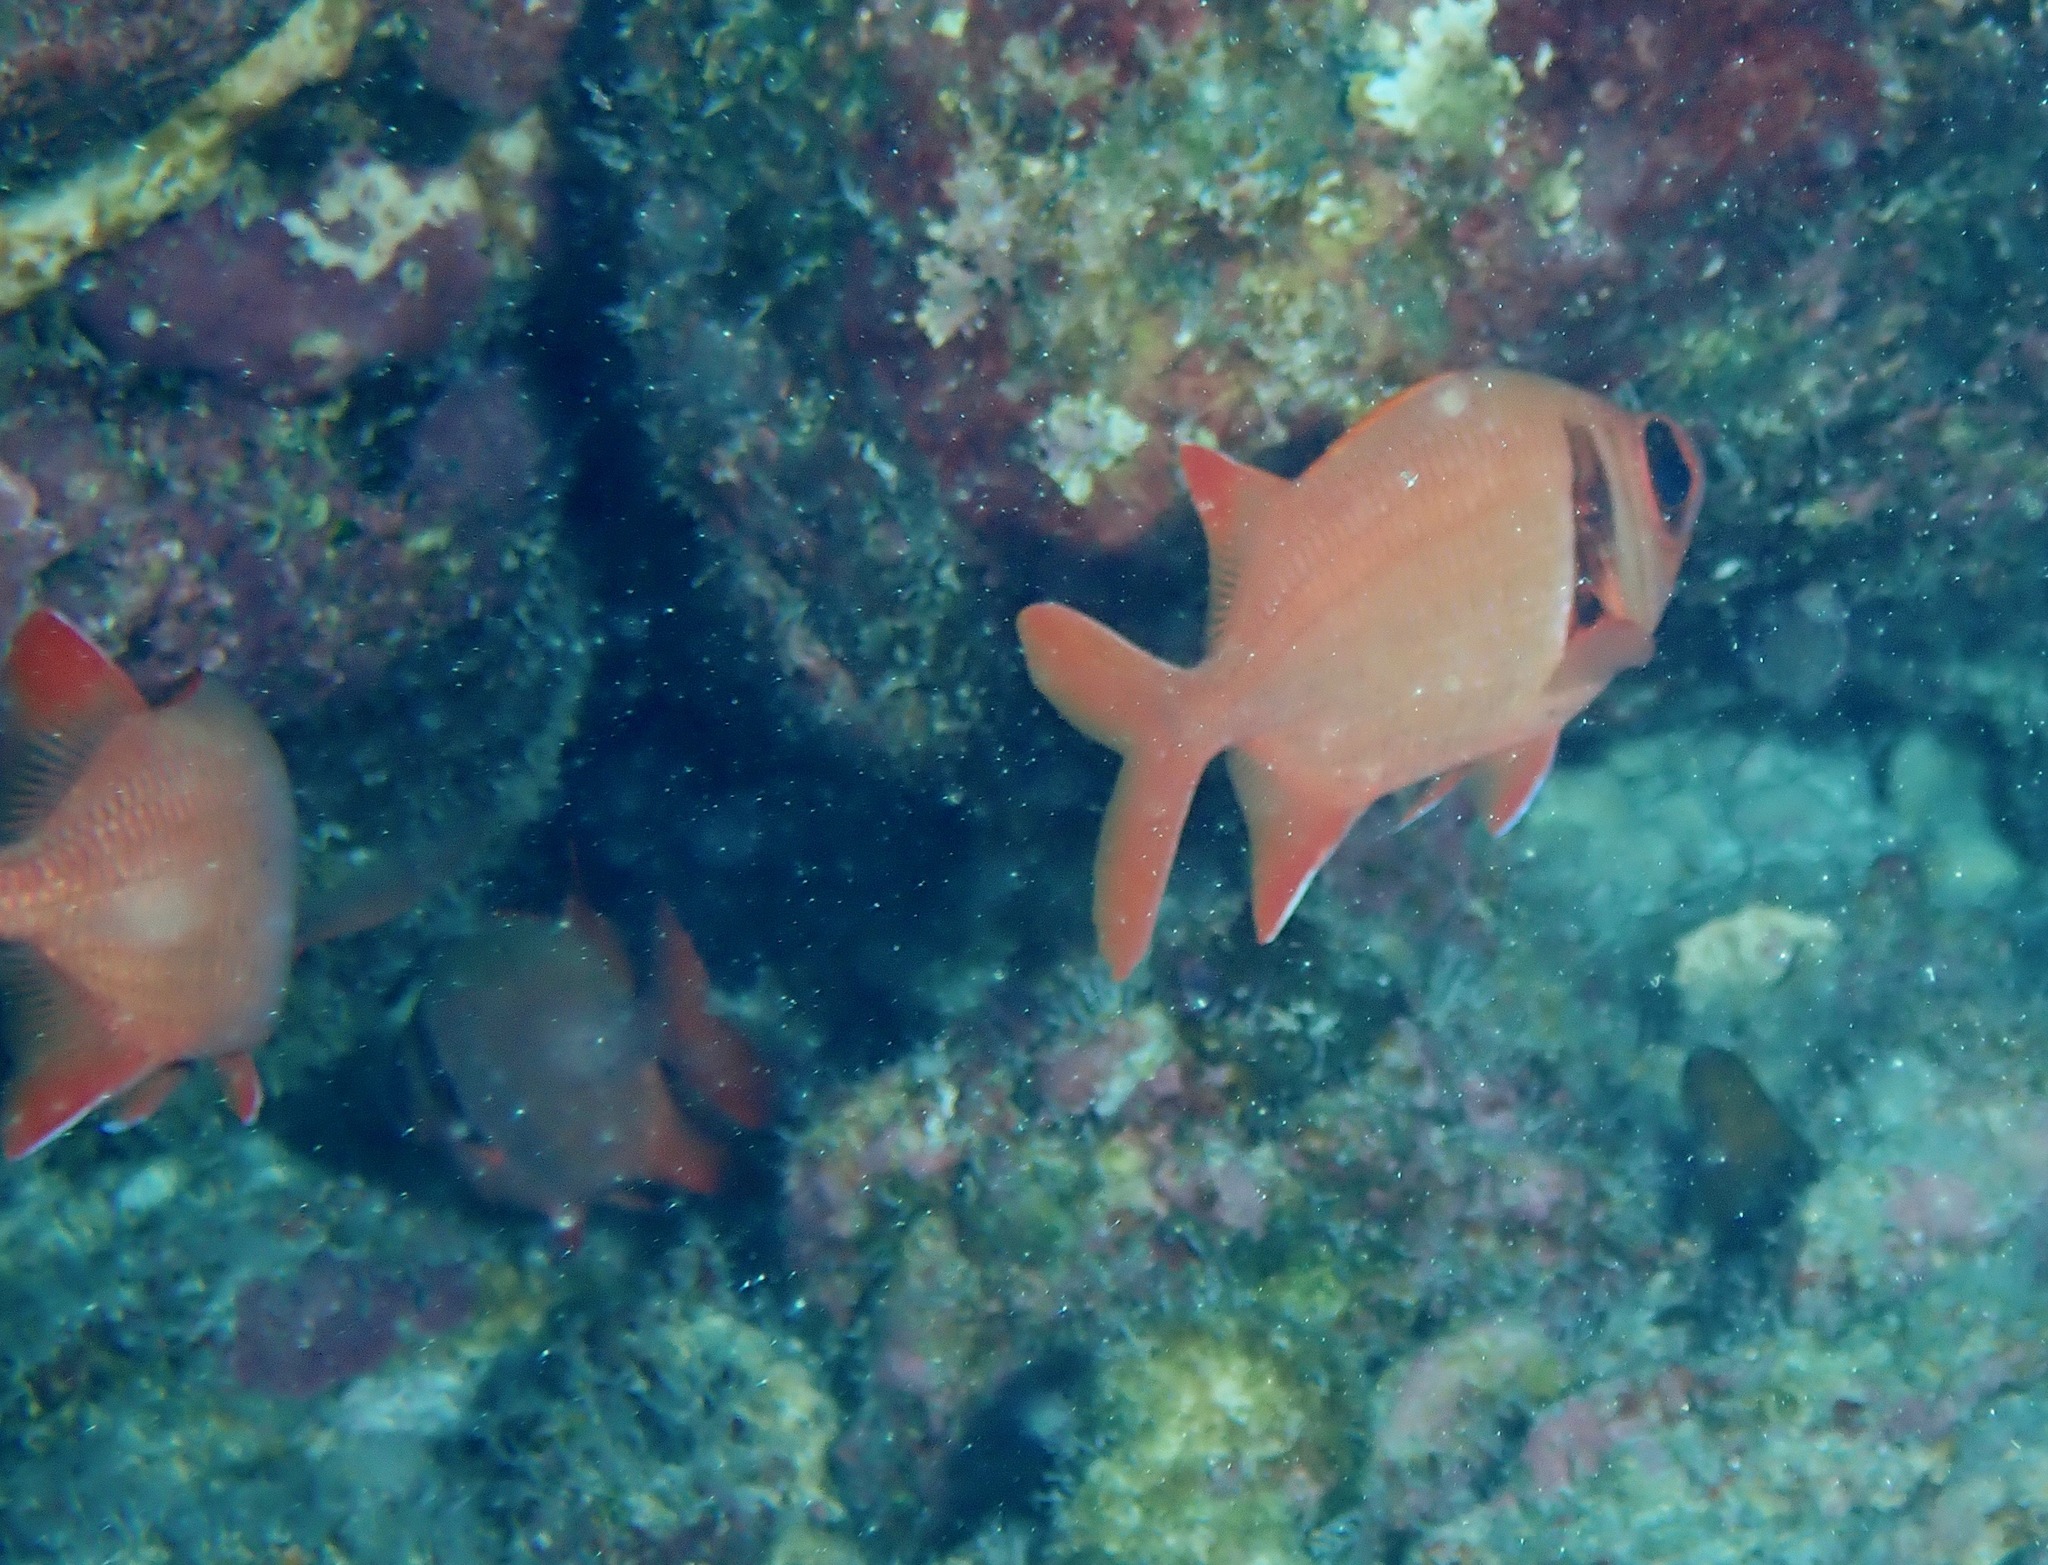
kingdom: Animalia
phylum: Chordata
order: Beryciformes
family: Holocentridae
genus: Myripristis
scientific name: Myripristis kuntee
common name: Epaulette soldierfish
